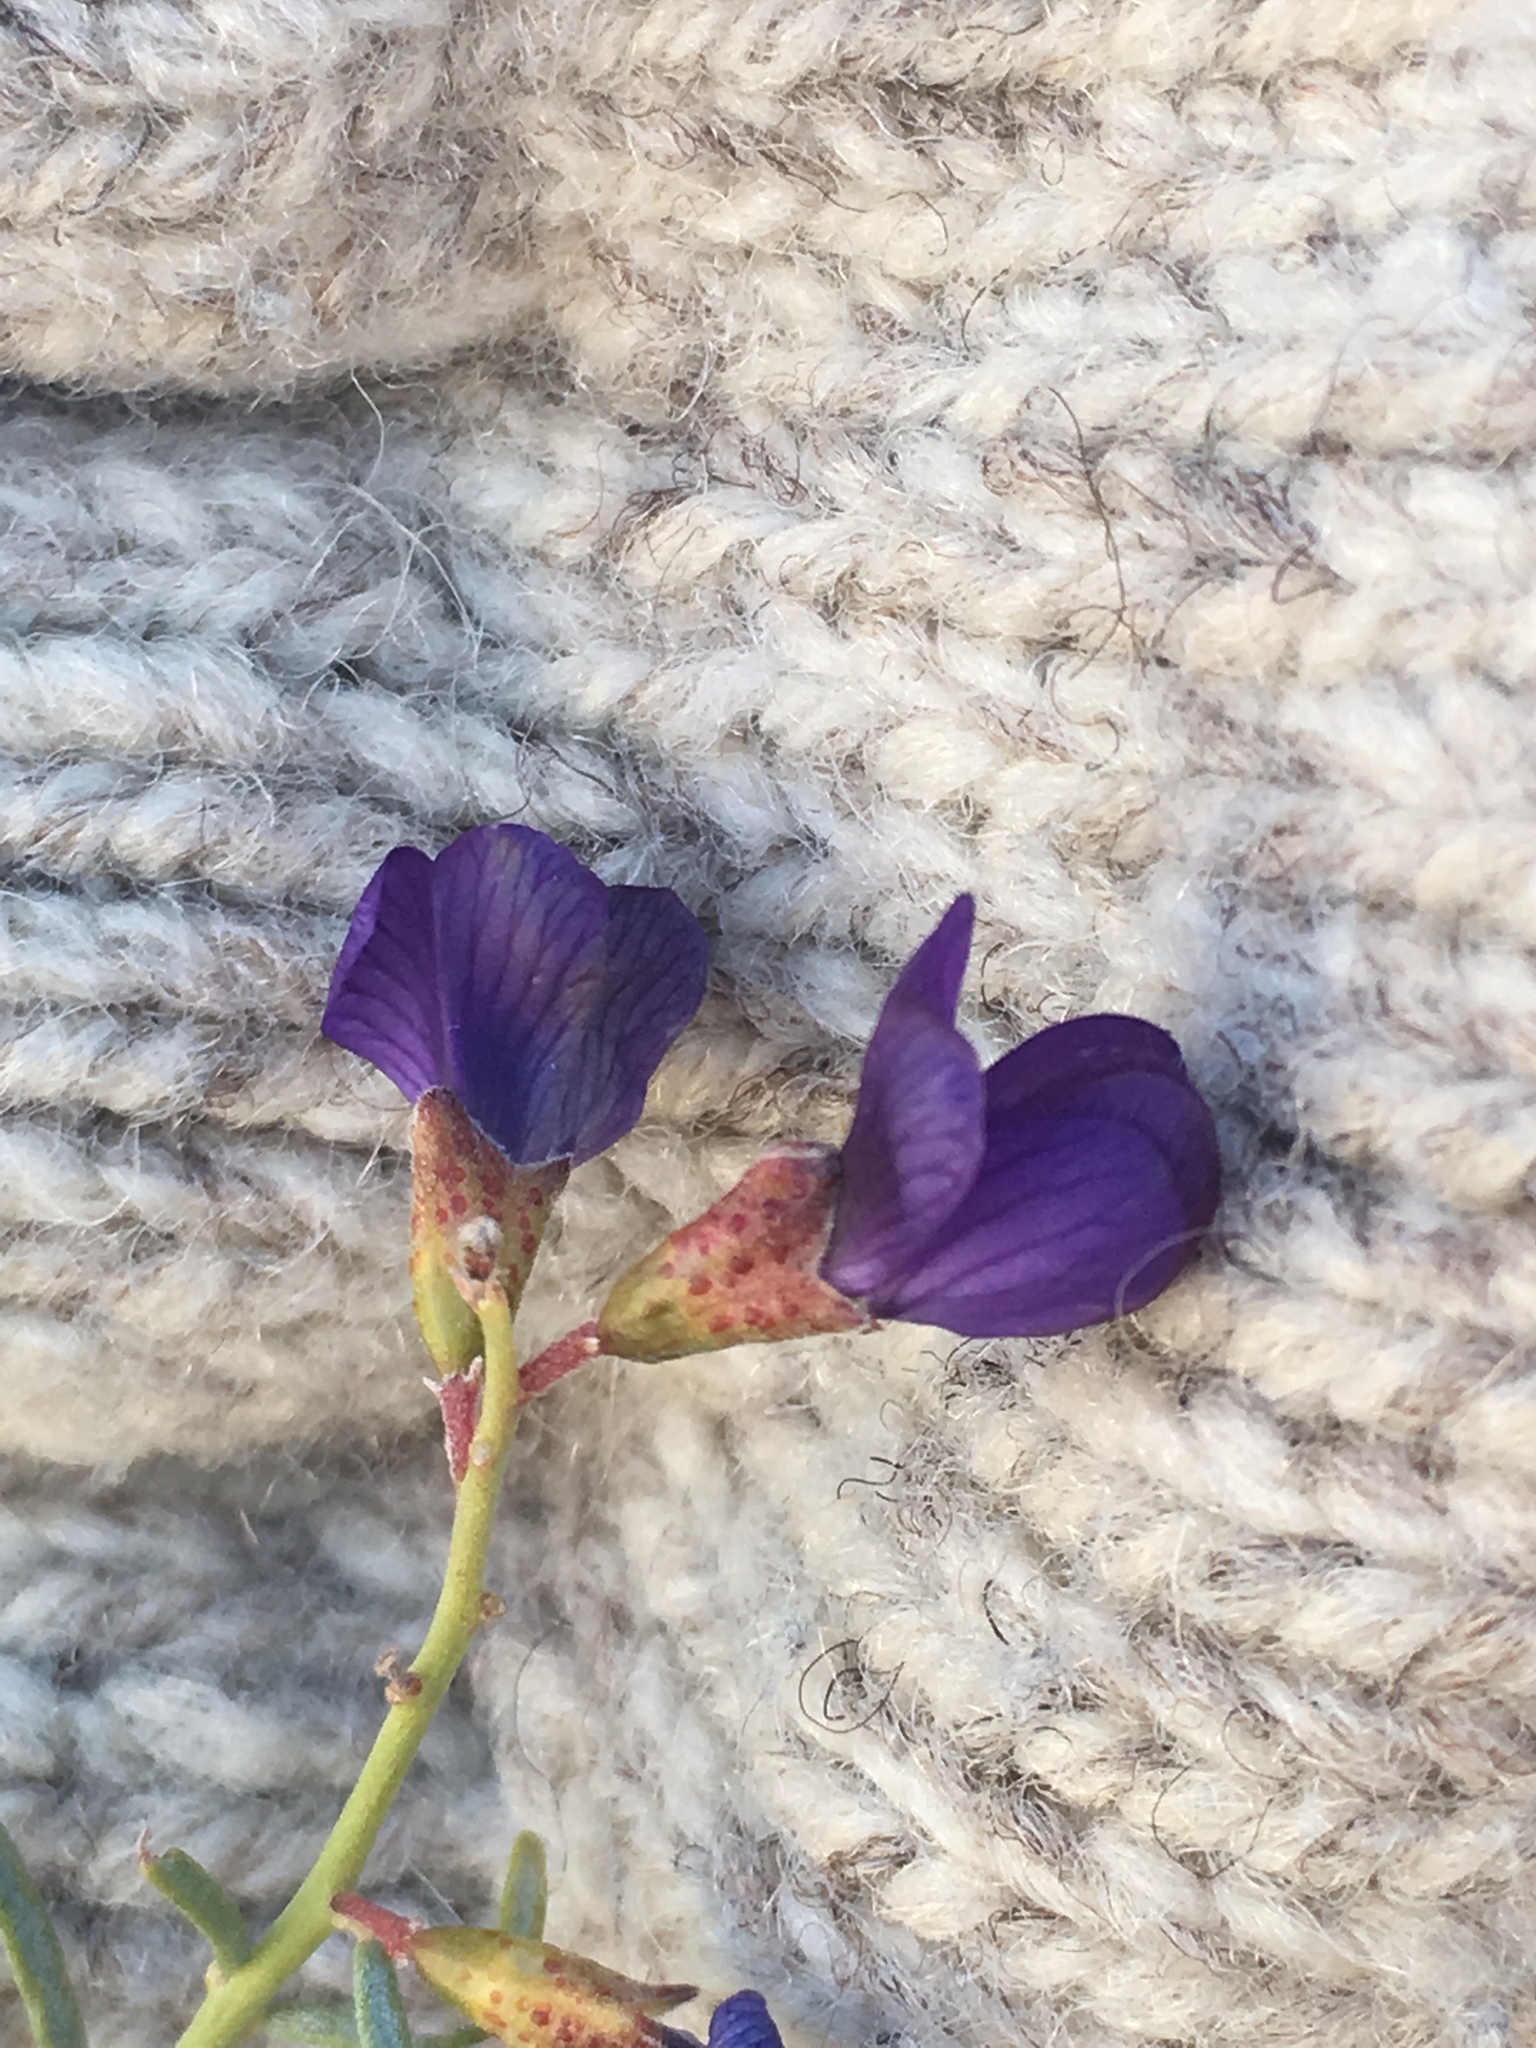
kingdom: Plantae
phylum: Tracheophyta
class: Magnoliopsida
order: Fabales
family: Fabaceae
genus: Psorothamnus
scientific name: Psorothamnus schottii
